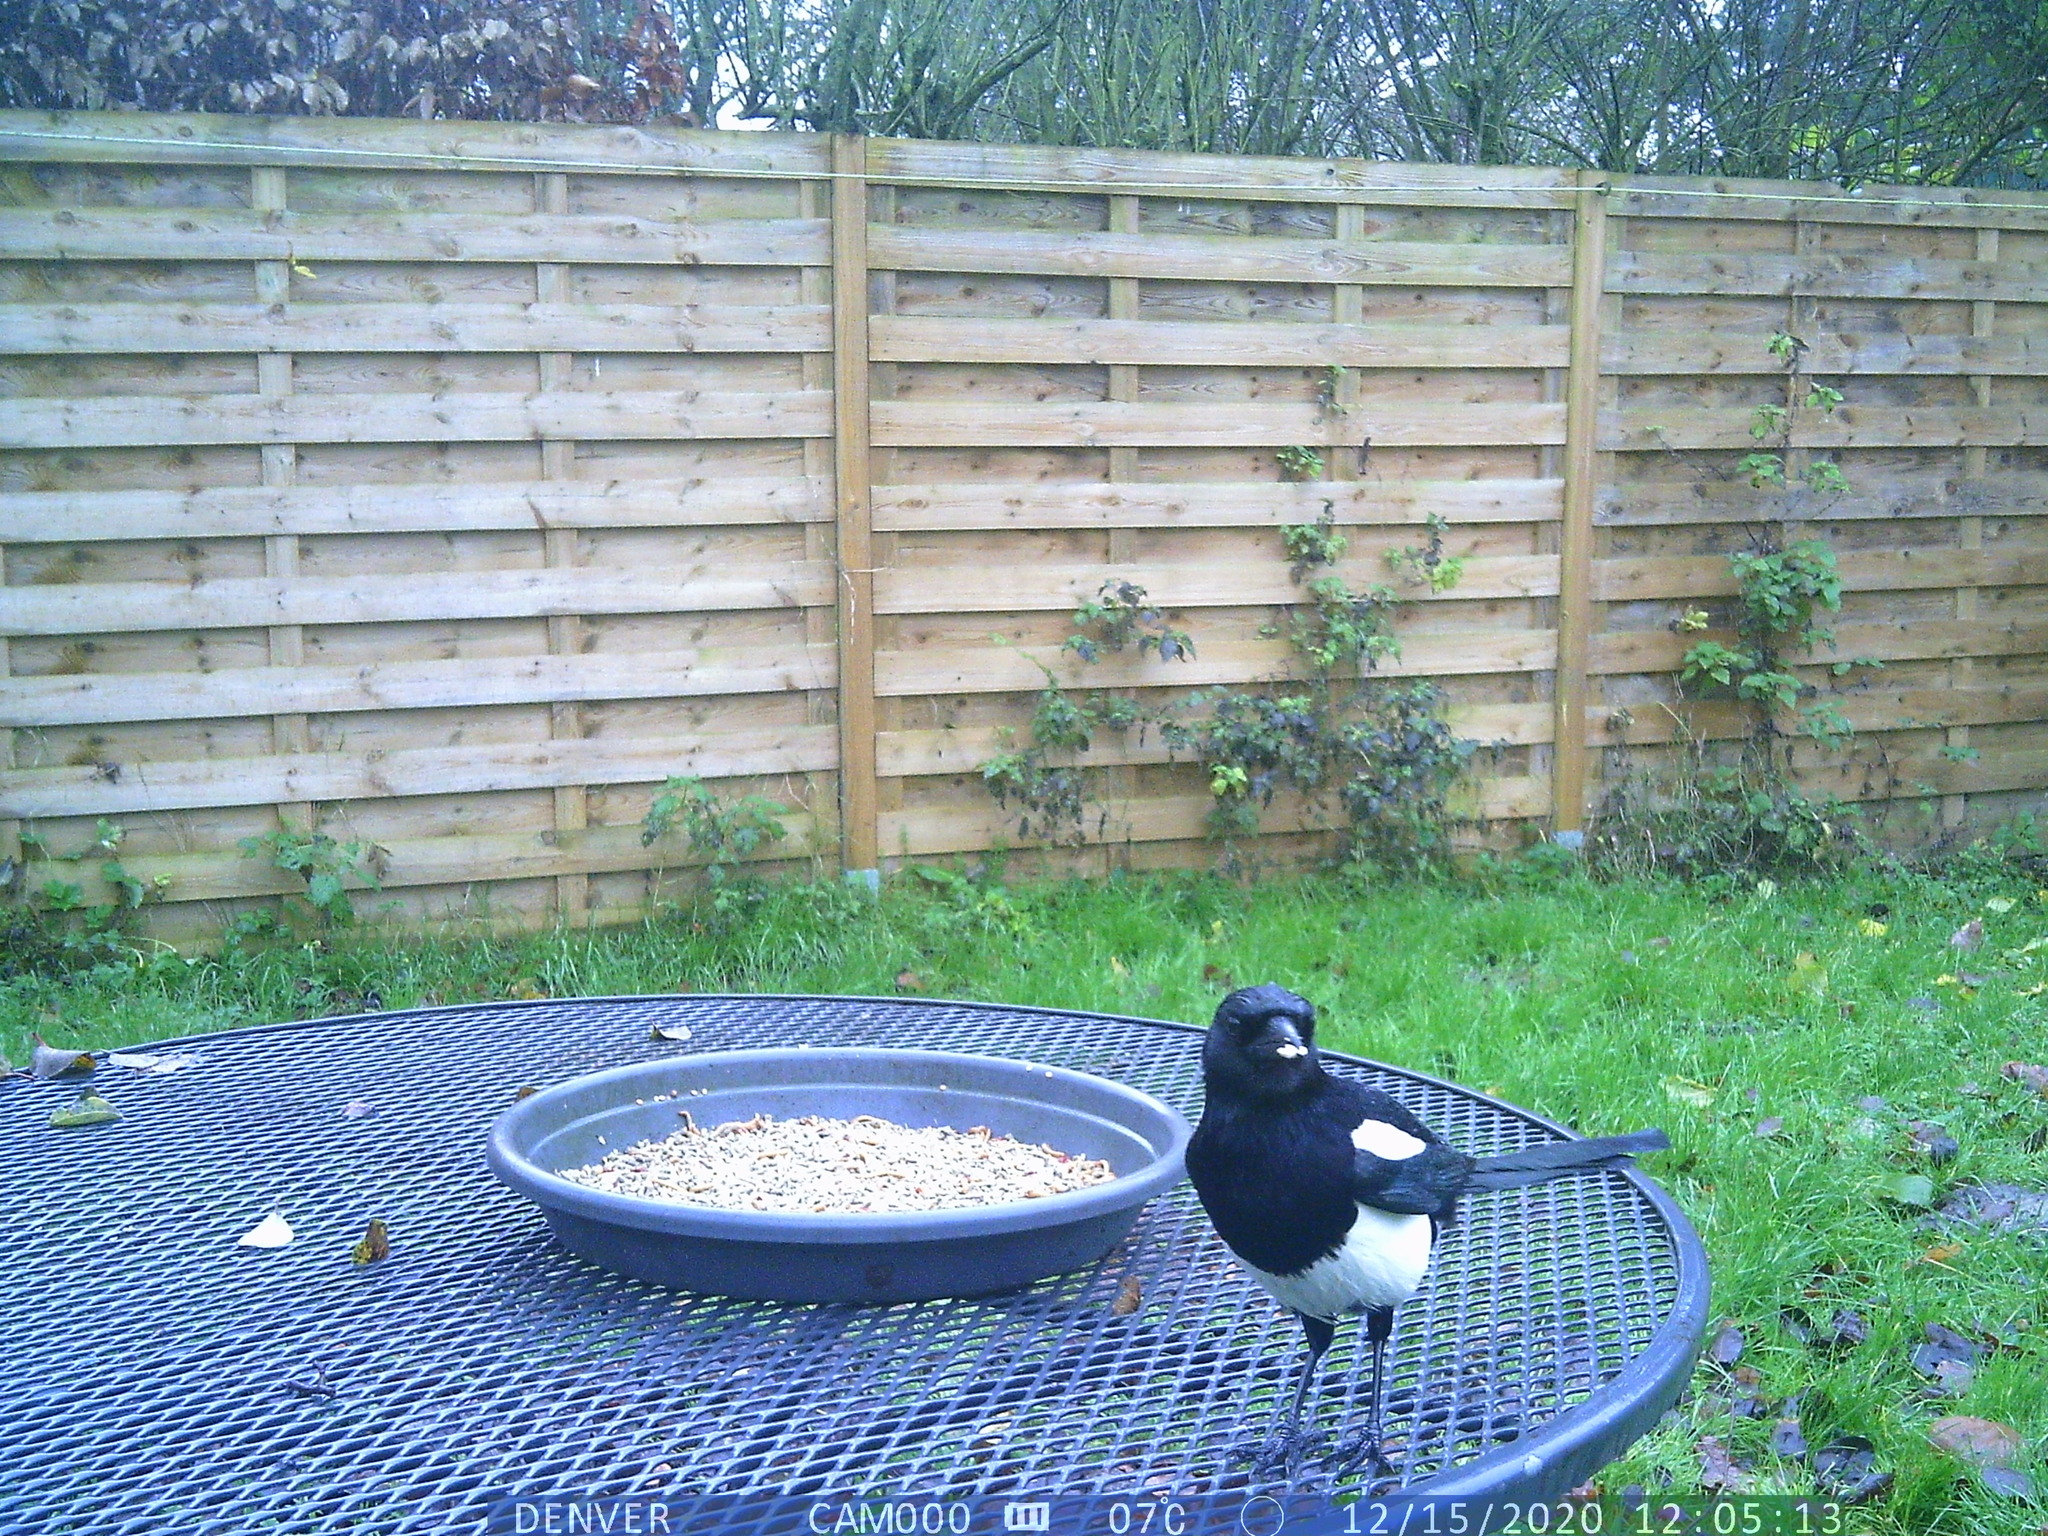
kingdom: Animalia
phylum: Chordata
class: Aves
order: Passeriformes
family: Corvidae
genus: Pica
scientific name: Pica pica
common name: Eurasian magpie
